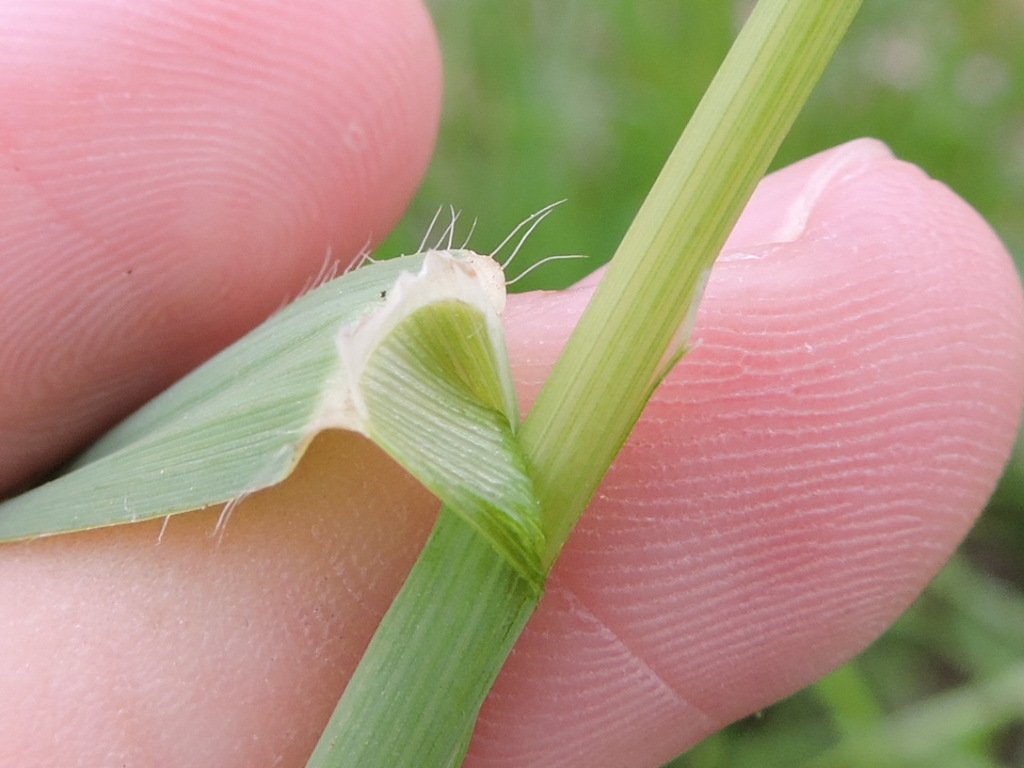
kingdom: Plantae
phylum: Tracheophyta
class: Liliopsida
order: Poales
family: Poaceae
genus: Avena
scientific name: Avena sativa
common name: Oat
